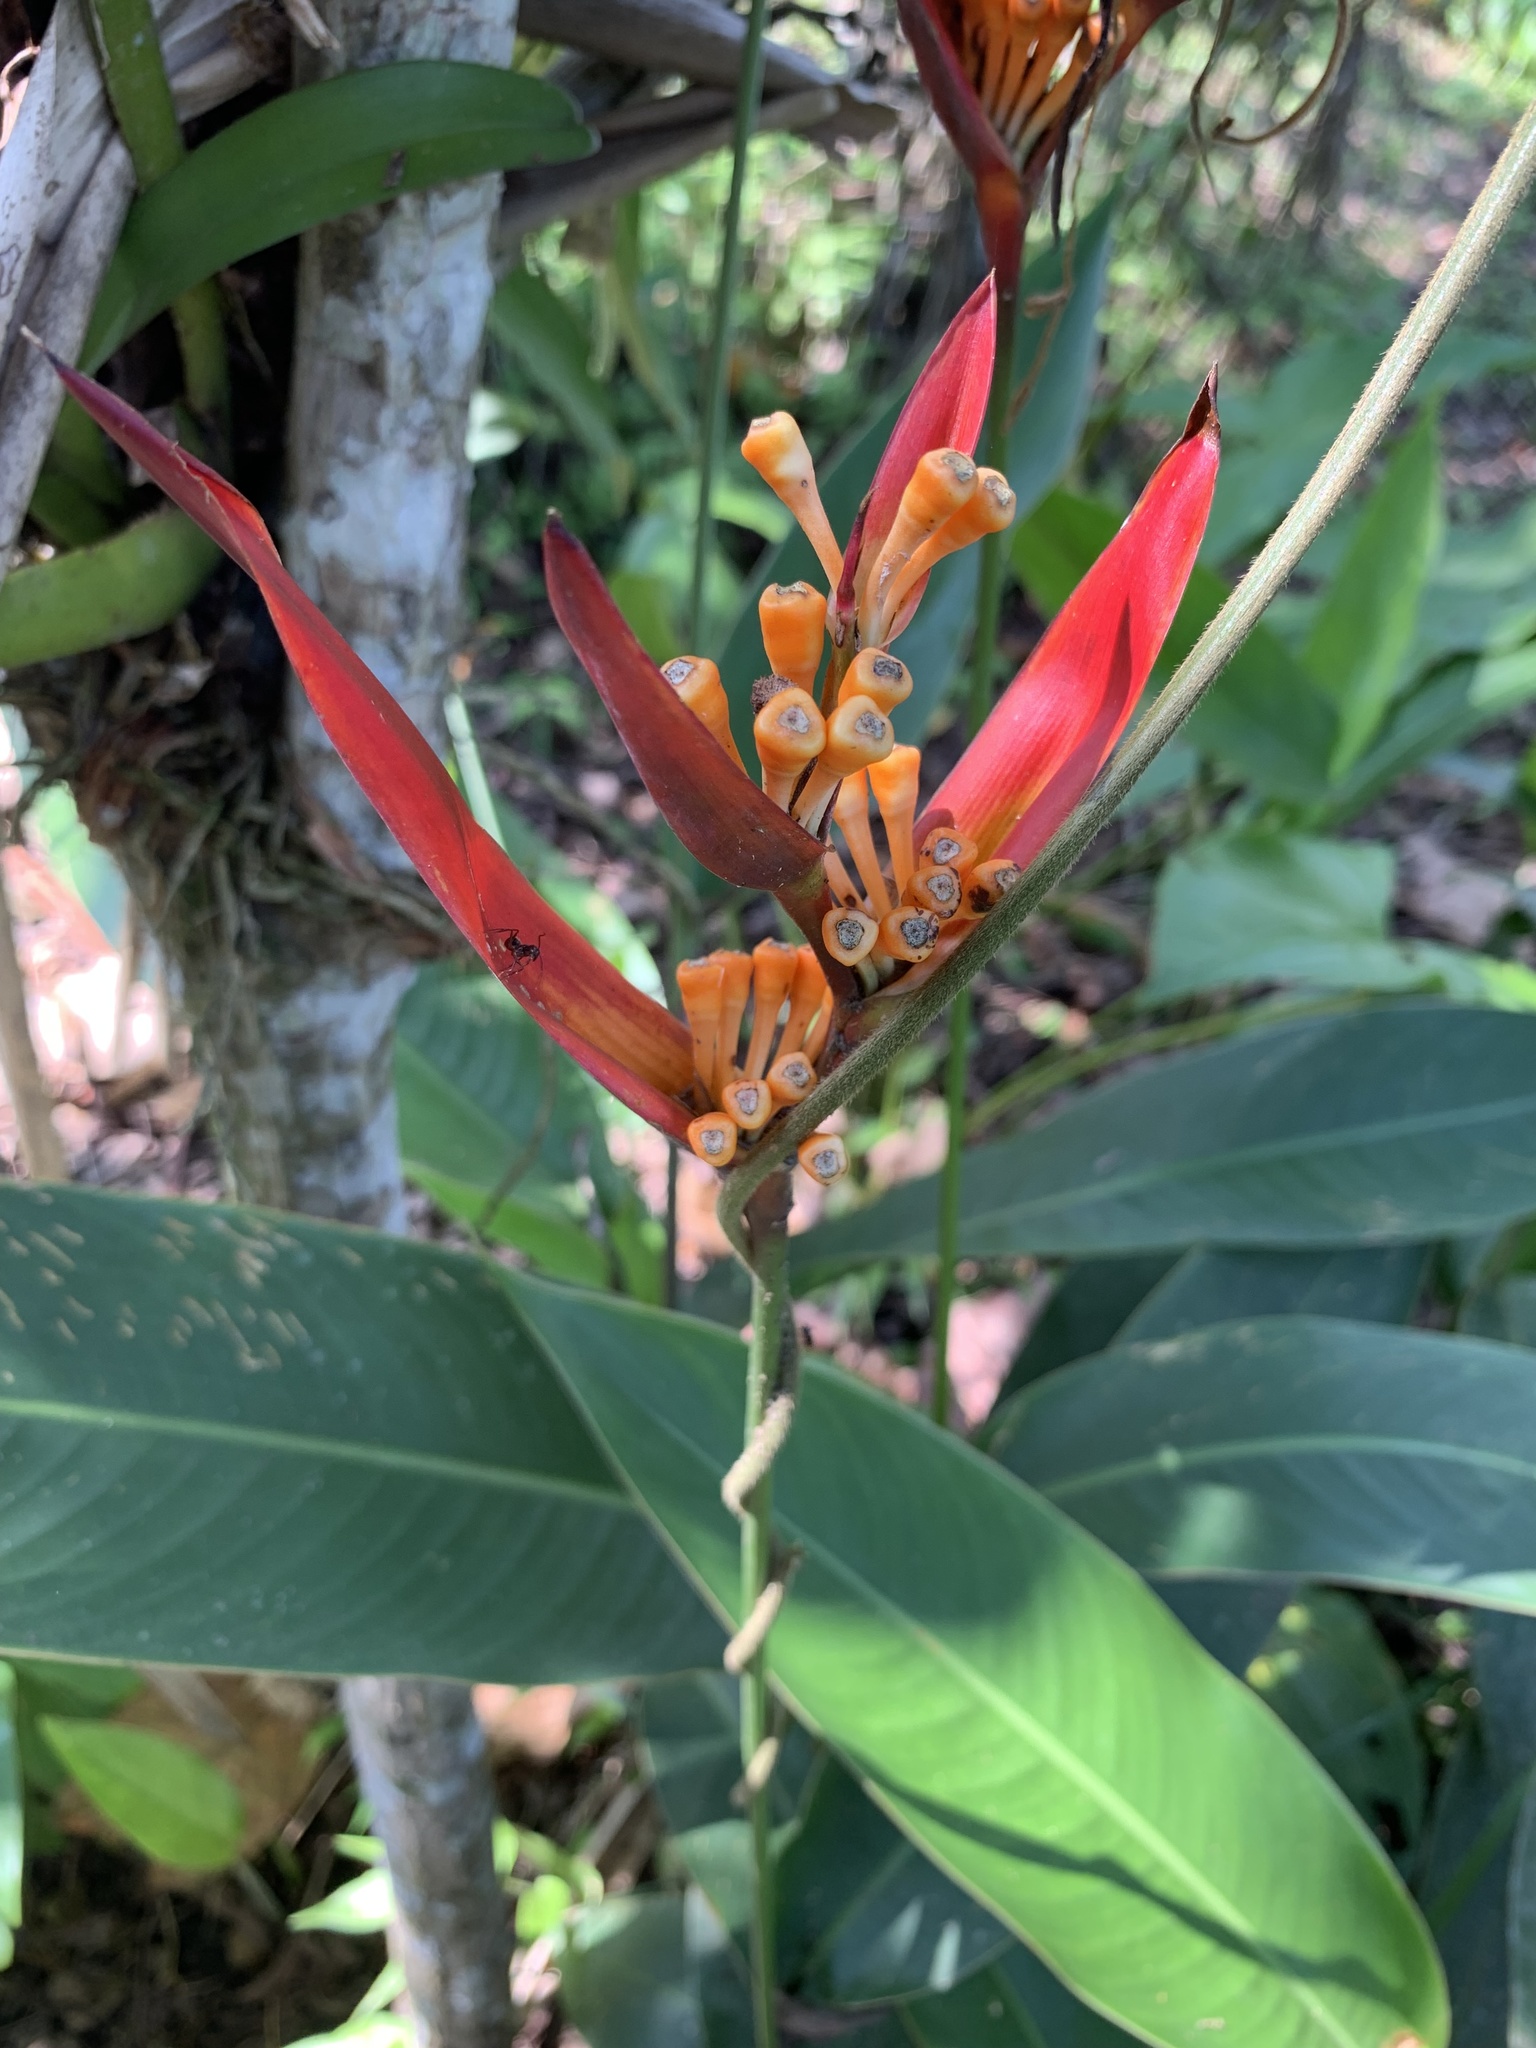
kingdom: Plantae
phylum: Tracheophyta
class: Liliopsida
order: Zingiberales
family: Heliconiaceae
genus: Heliconia
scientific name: Heliconia psittacorum
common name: Parrot's-flower
